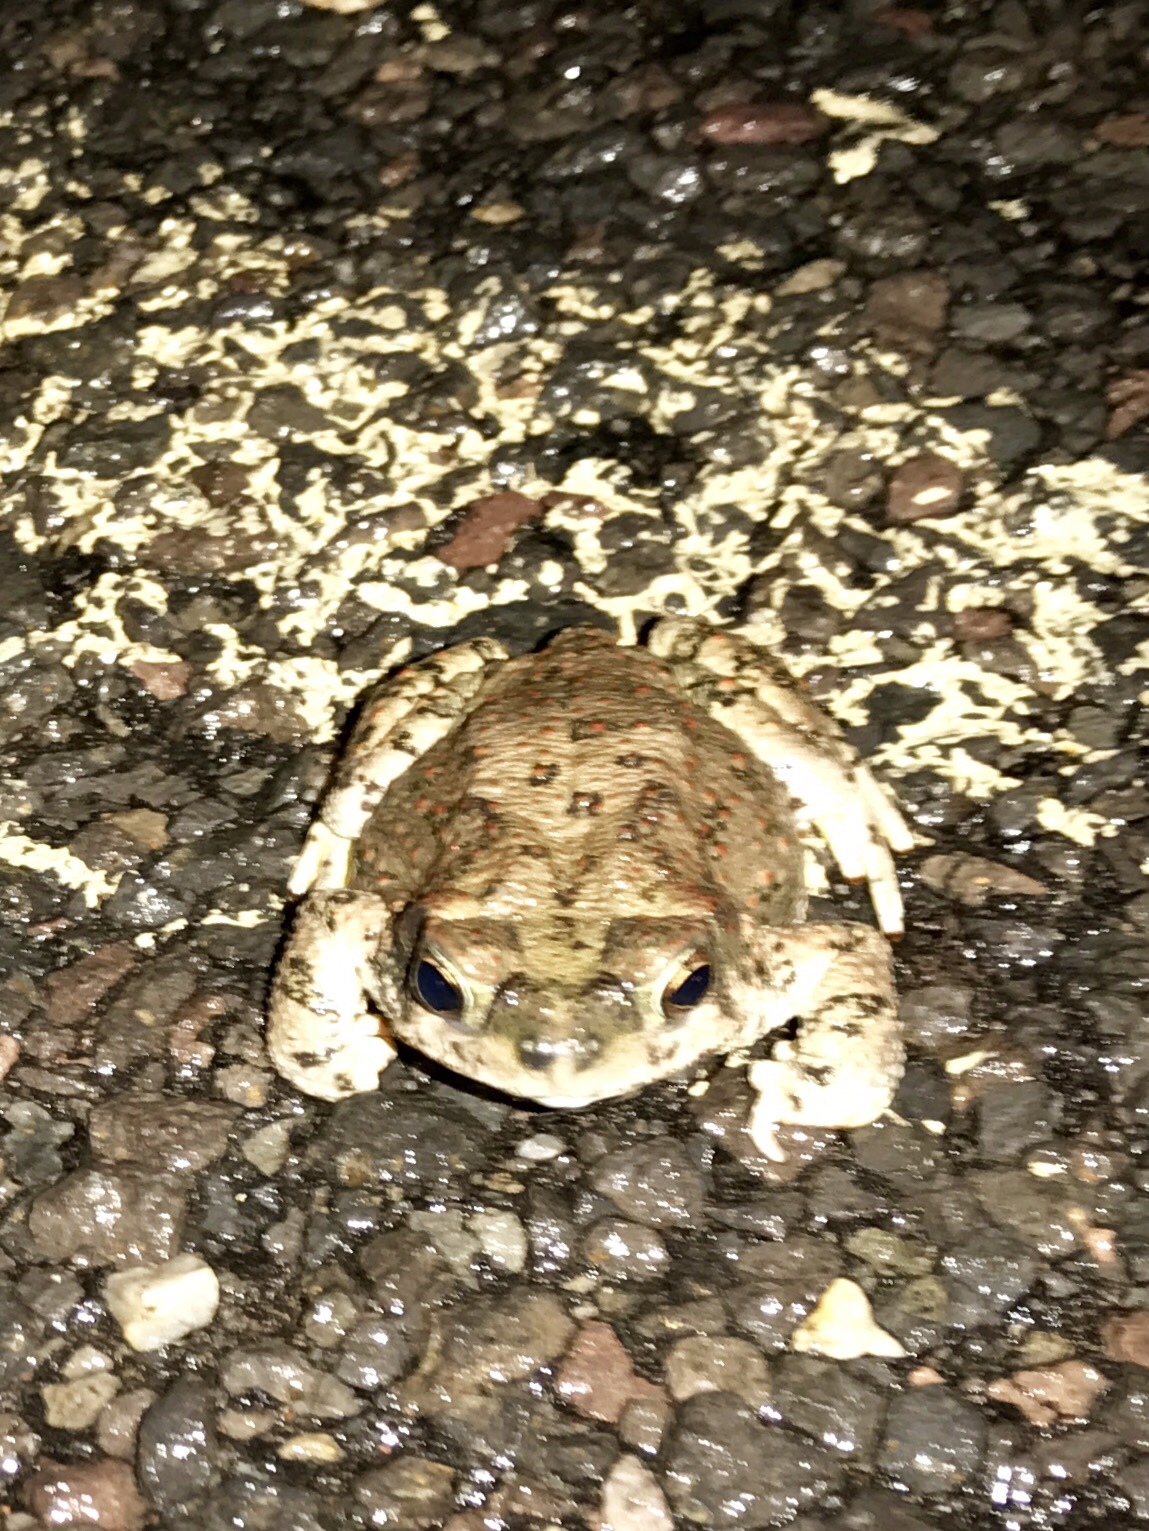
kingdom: Animalia
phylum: Chordata
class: Amphibia
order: Anura
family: Bufonidae
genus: Anaxyrus
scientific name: Anaxyrus punctatus
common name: Red-spotted toad
